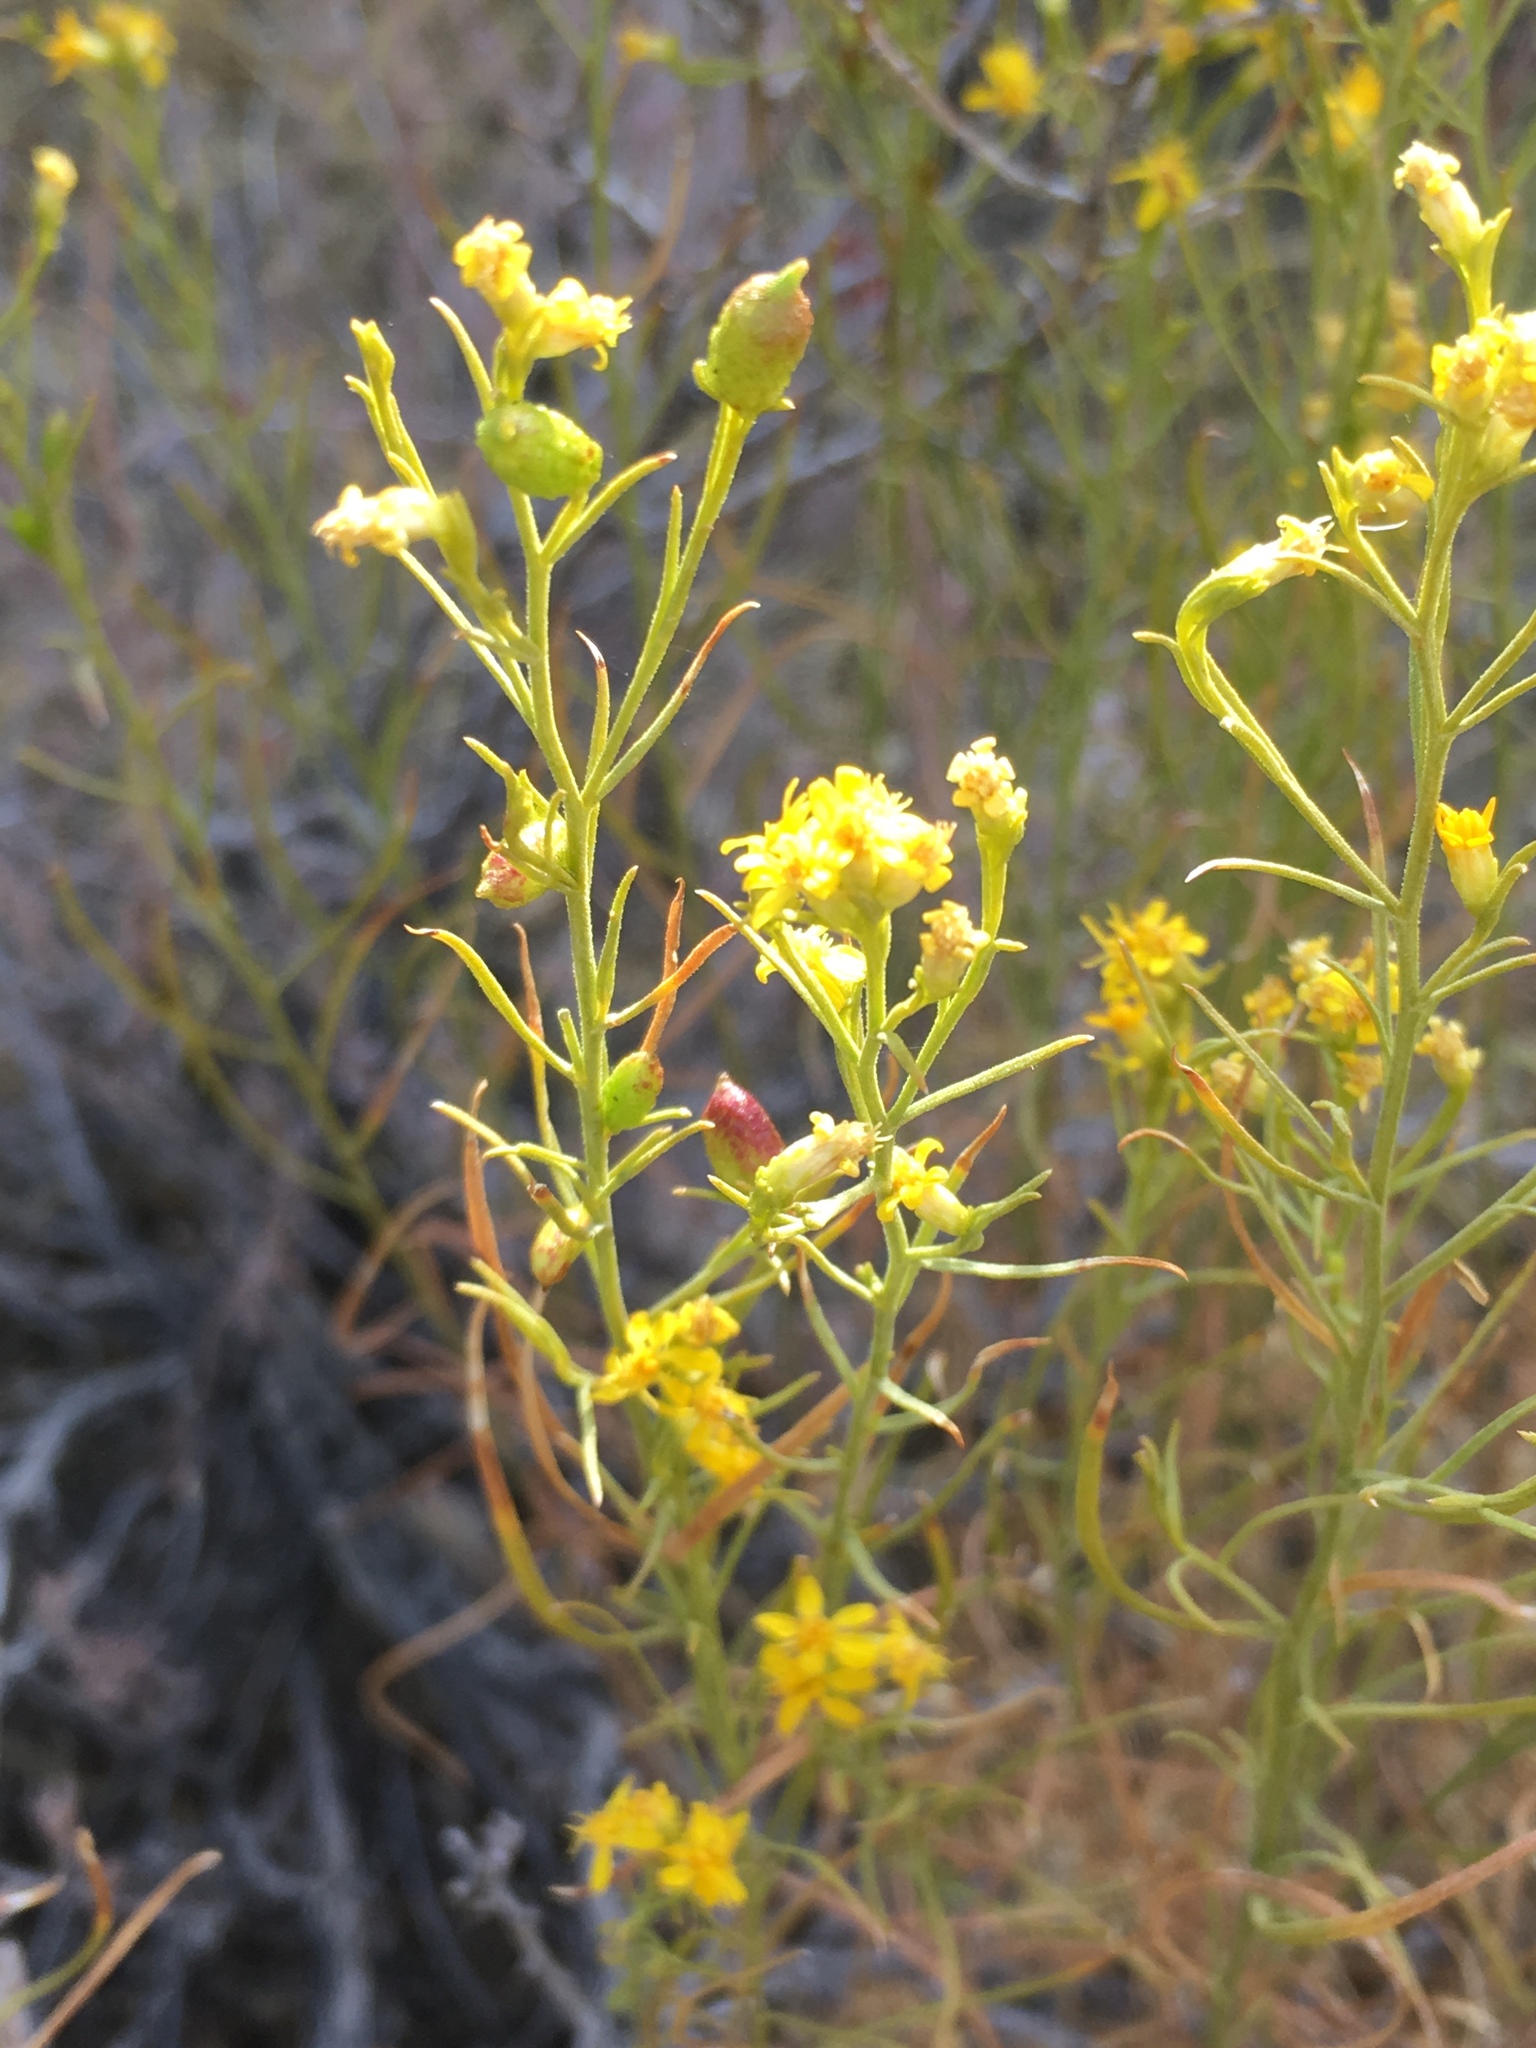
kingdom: Plantae
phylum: Tracheophyta
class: Magnoliopsida
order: Asterales
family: Asteraceae
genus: Gutierrezia
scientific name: Gutierrezia sarothrae
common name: Broom snakeweed
